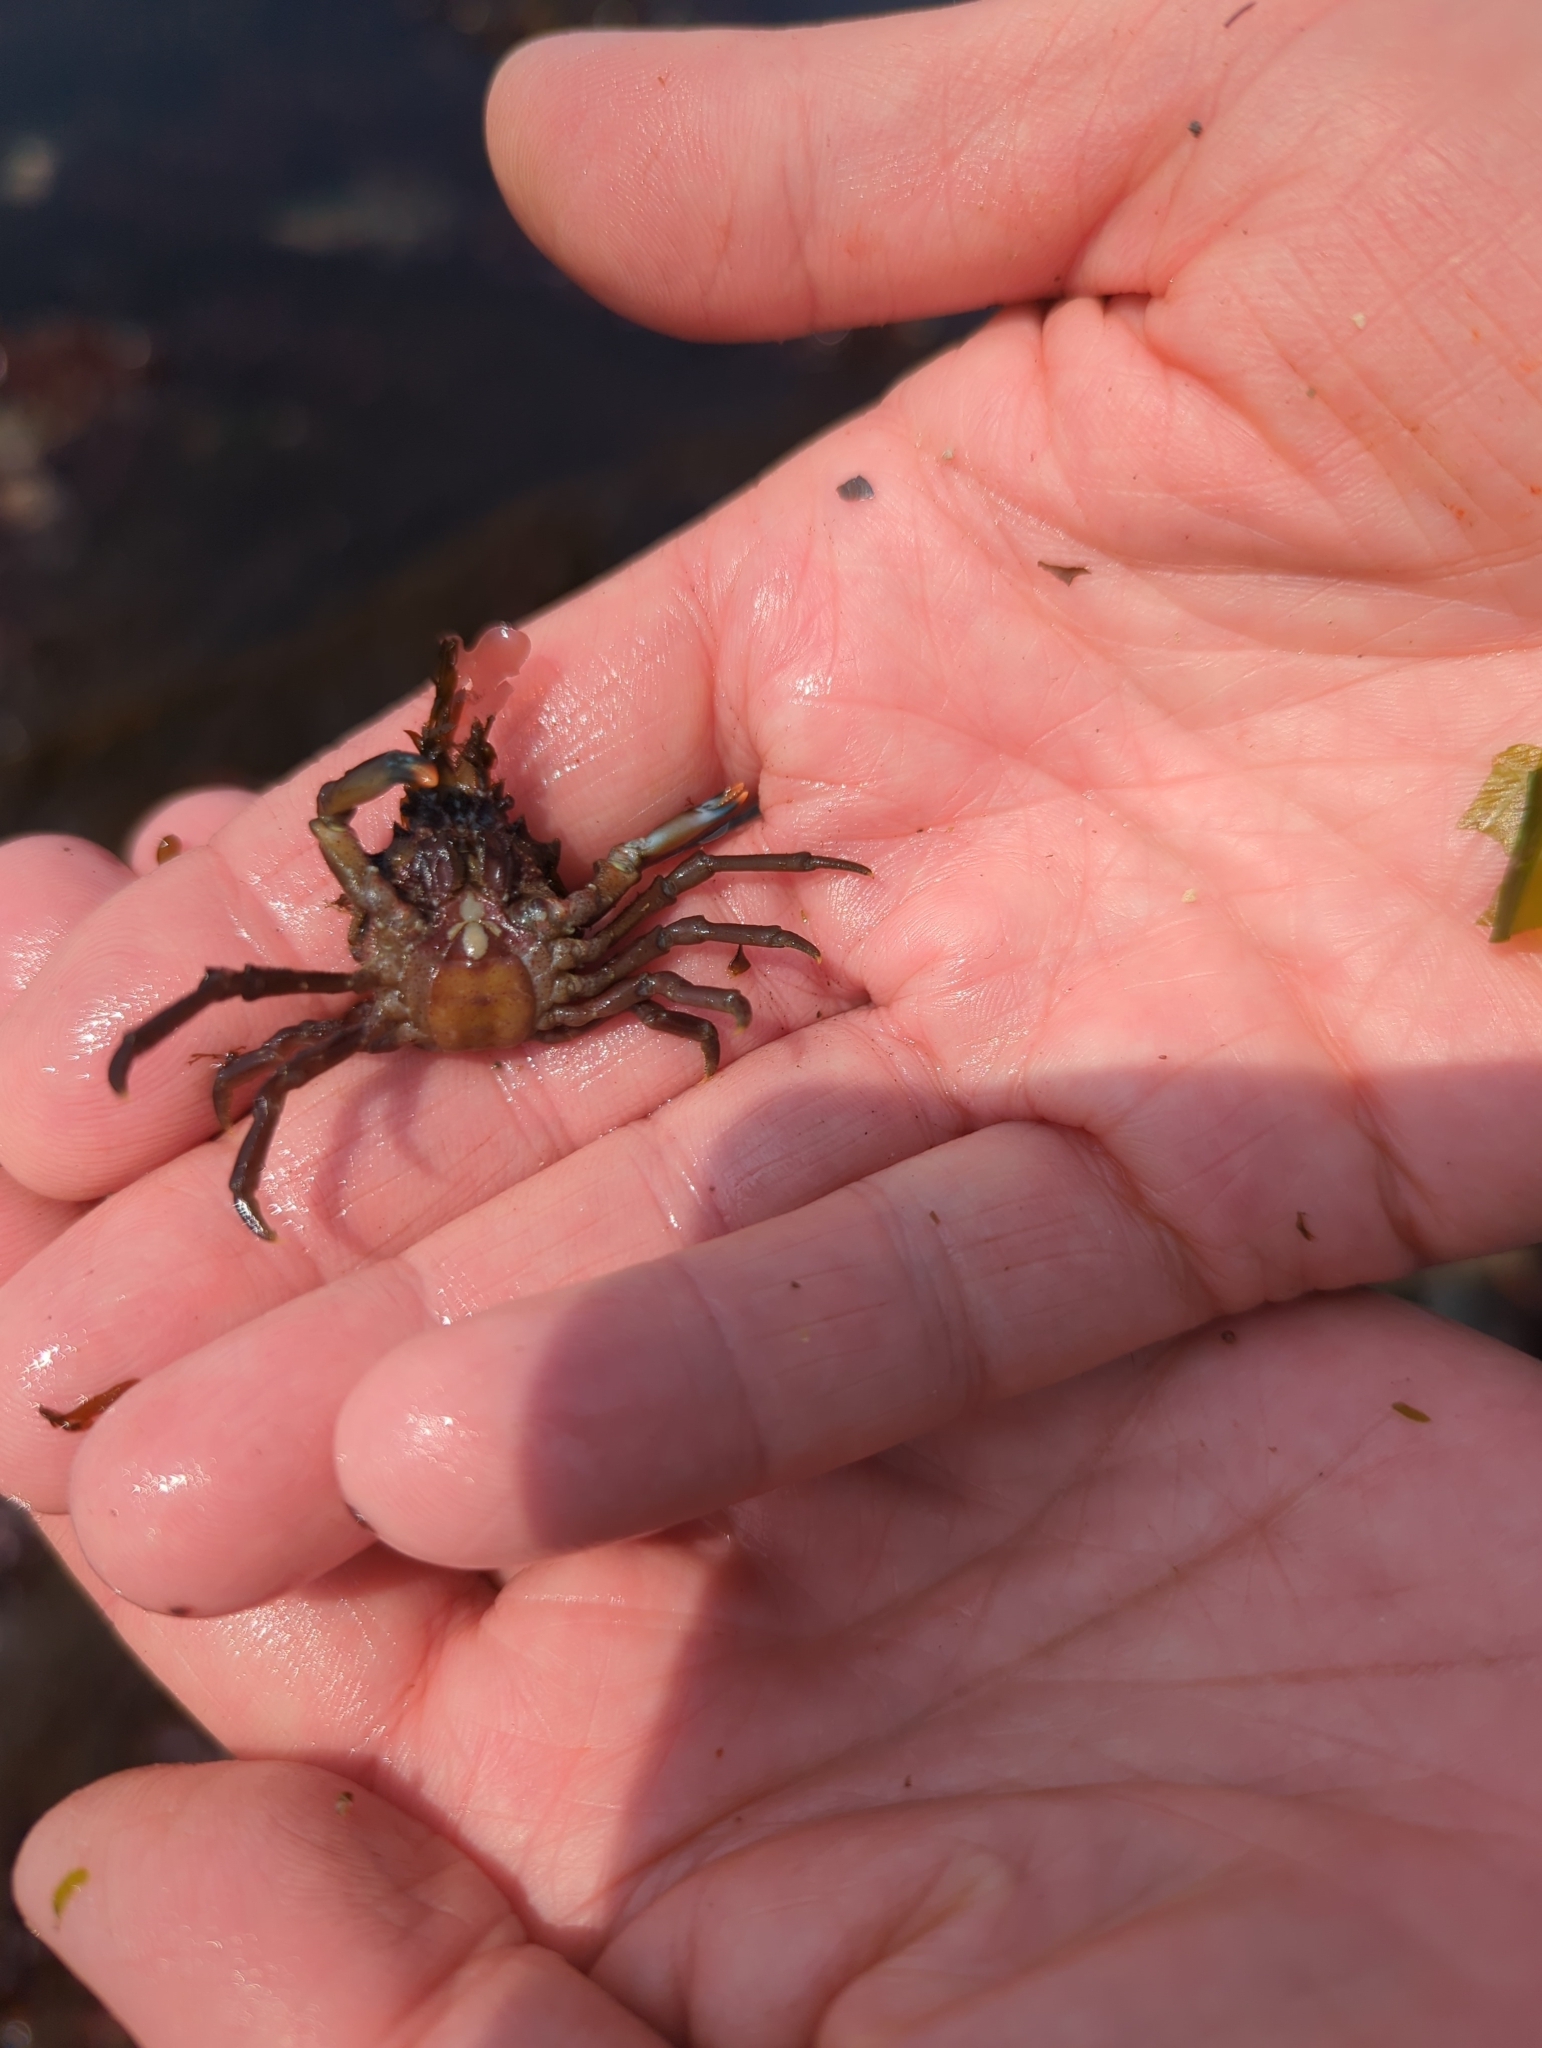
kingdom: Animalia
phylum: Arthropoda
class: Malacostraca
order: Decapoda
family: Epialtidae
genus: Pugettia
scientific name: Pugettia gracilis
